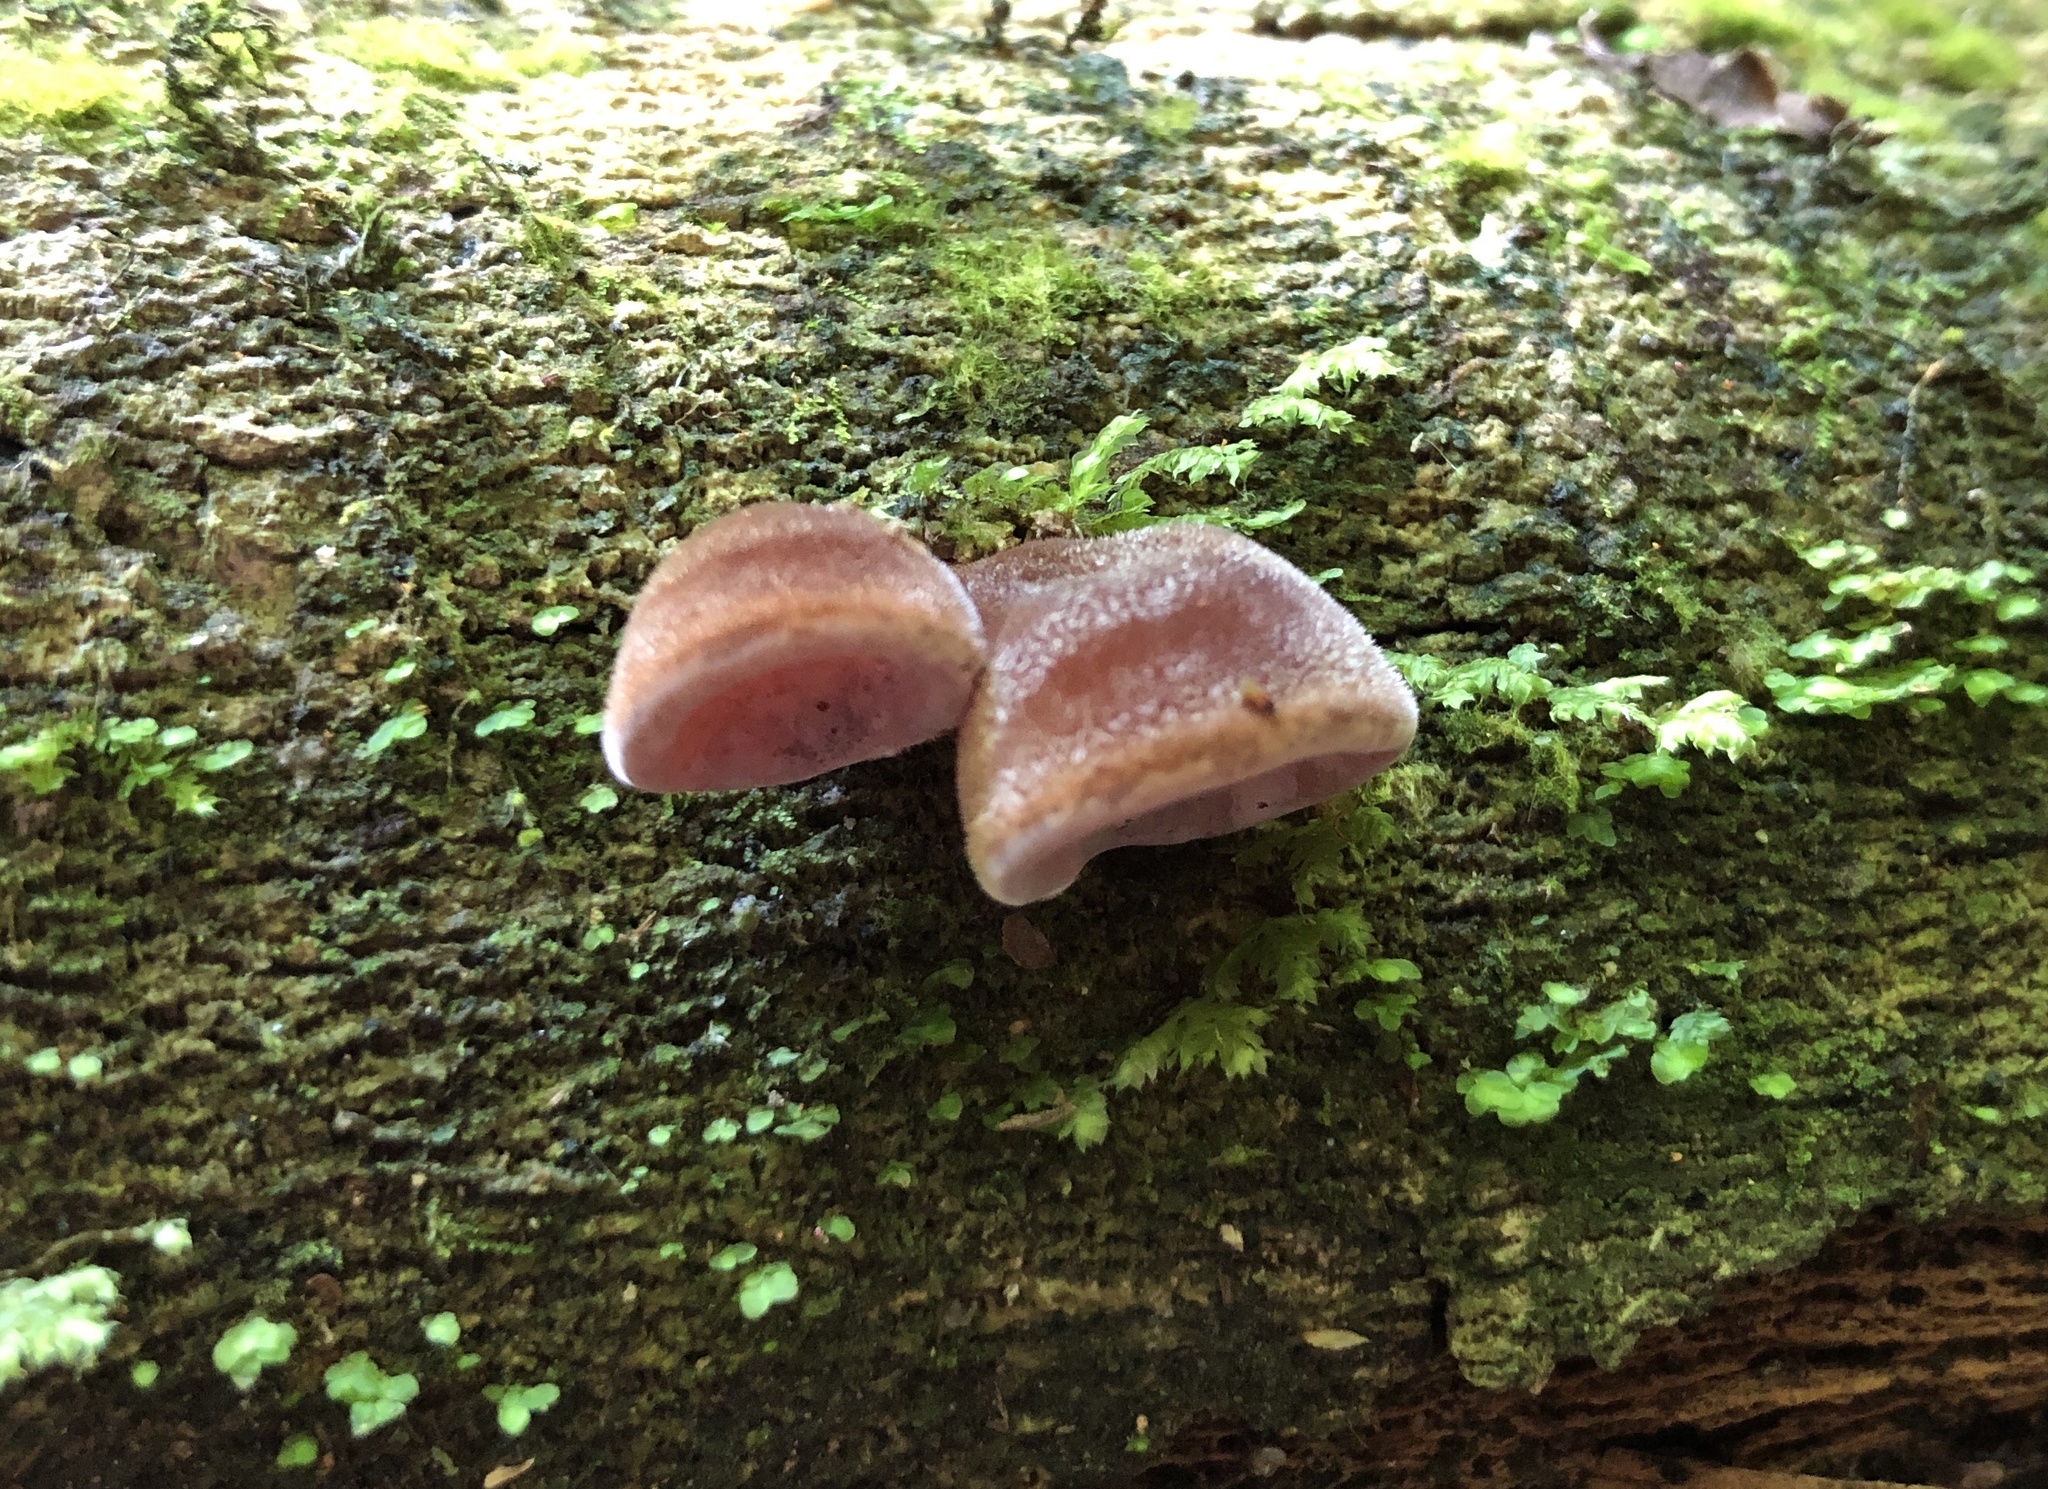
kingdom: Fungi
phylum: Basidiomycota
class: Agaricomycetes
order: Auriculariales
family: Auriculariaceae
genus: Auricularia
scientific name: Auricularia cornea
